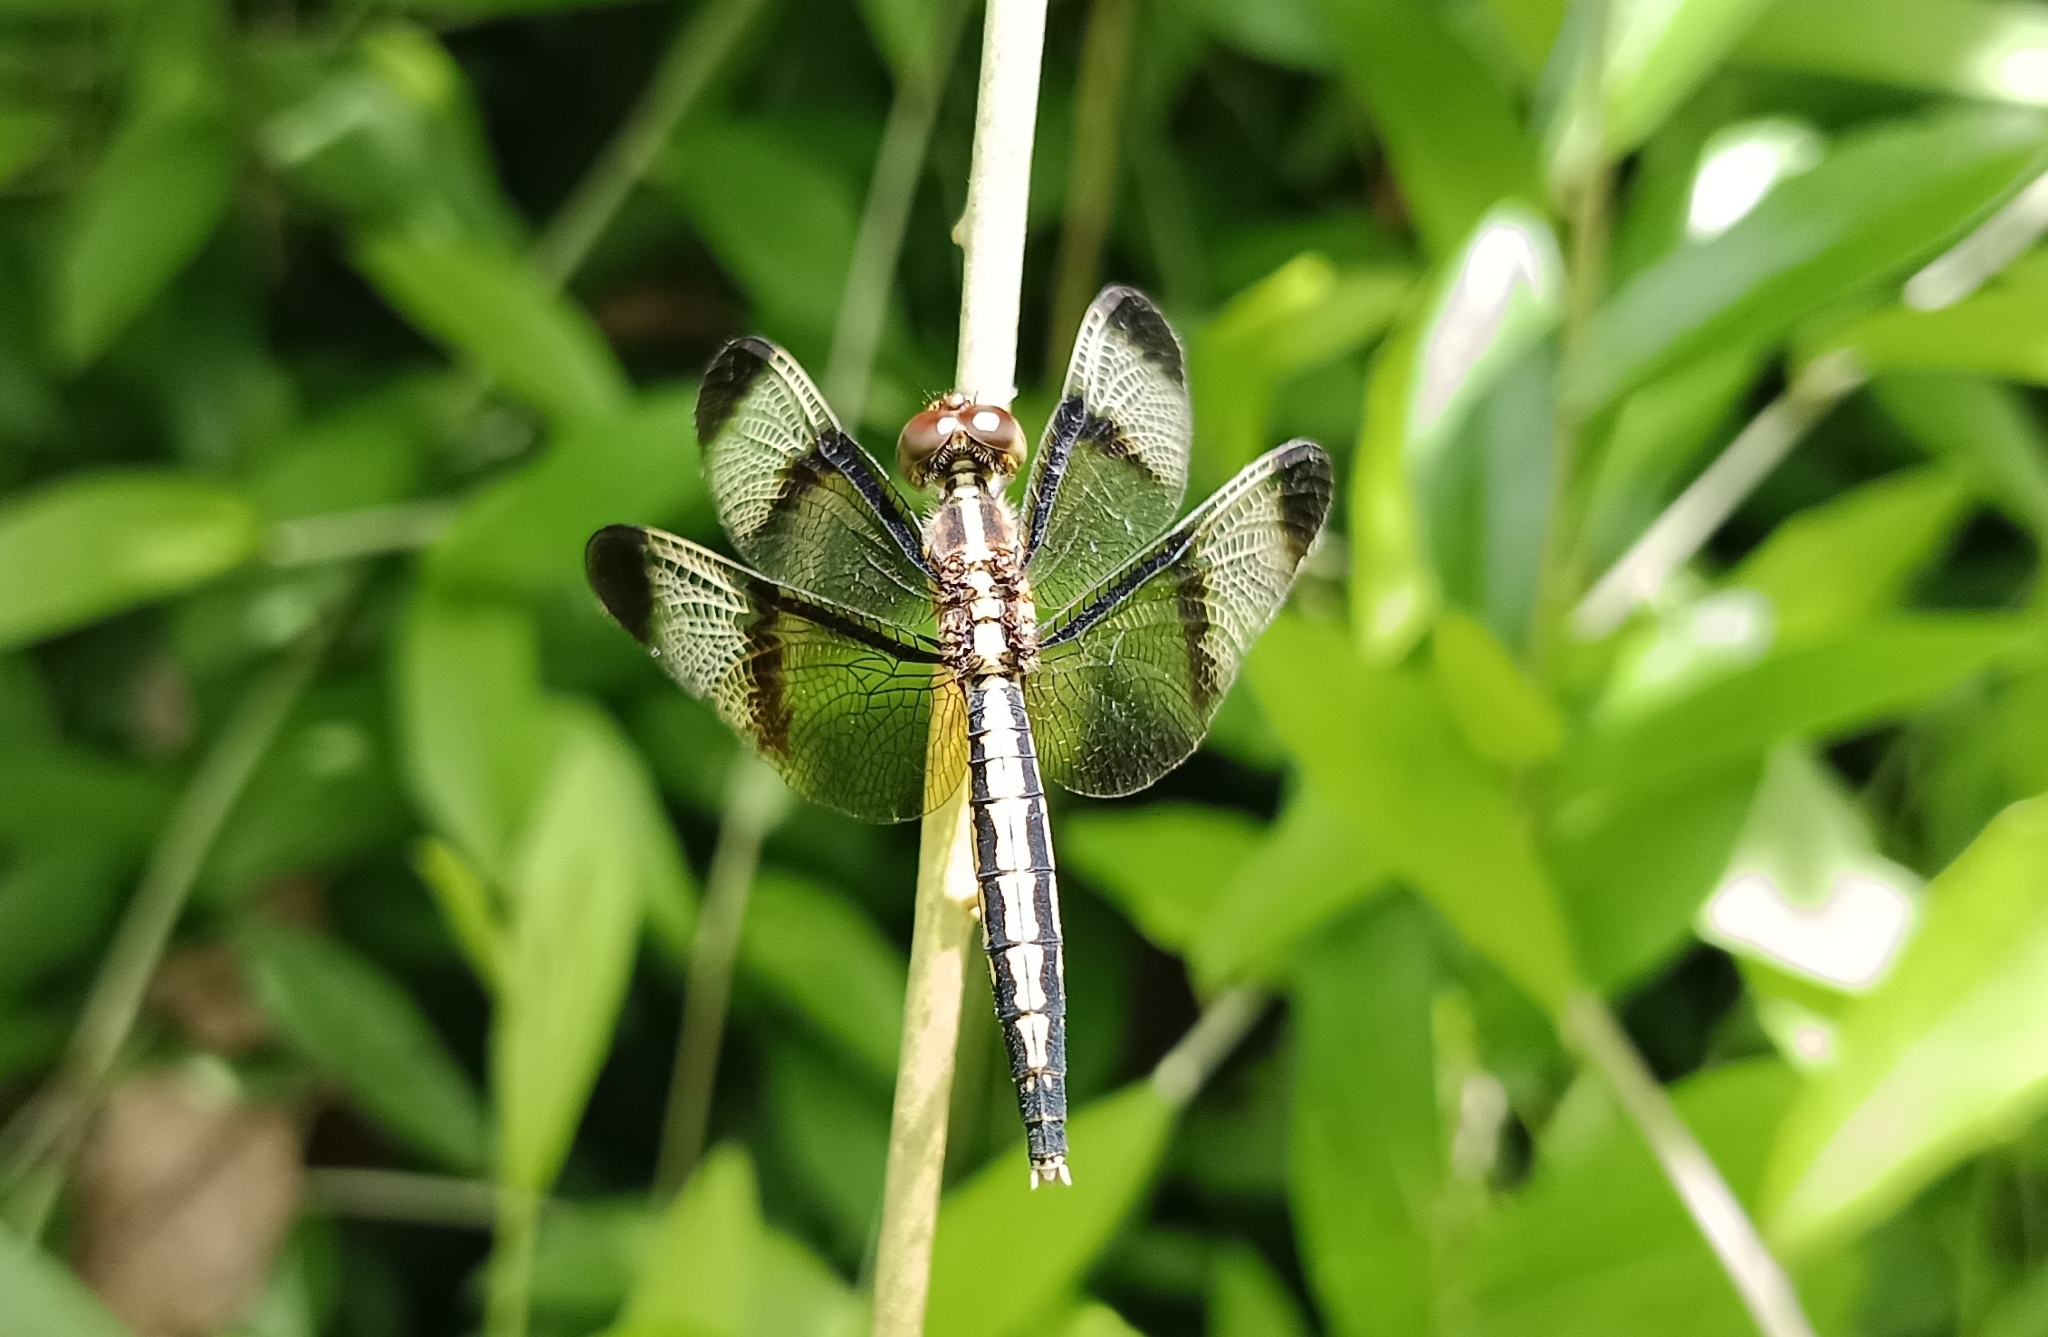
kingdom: Animalia
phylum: Arthropoda
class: Insecta
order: Odonata
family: Libellulidae
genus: Neurothemis
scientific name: Neurothemis tullia
